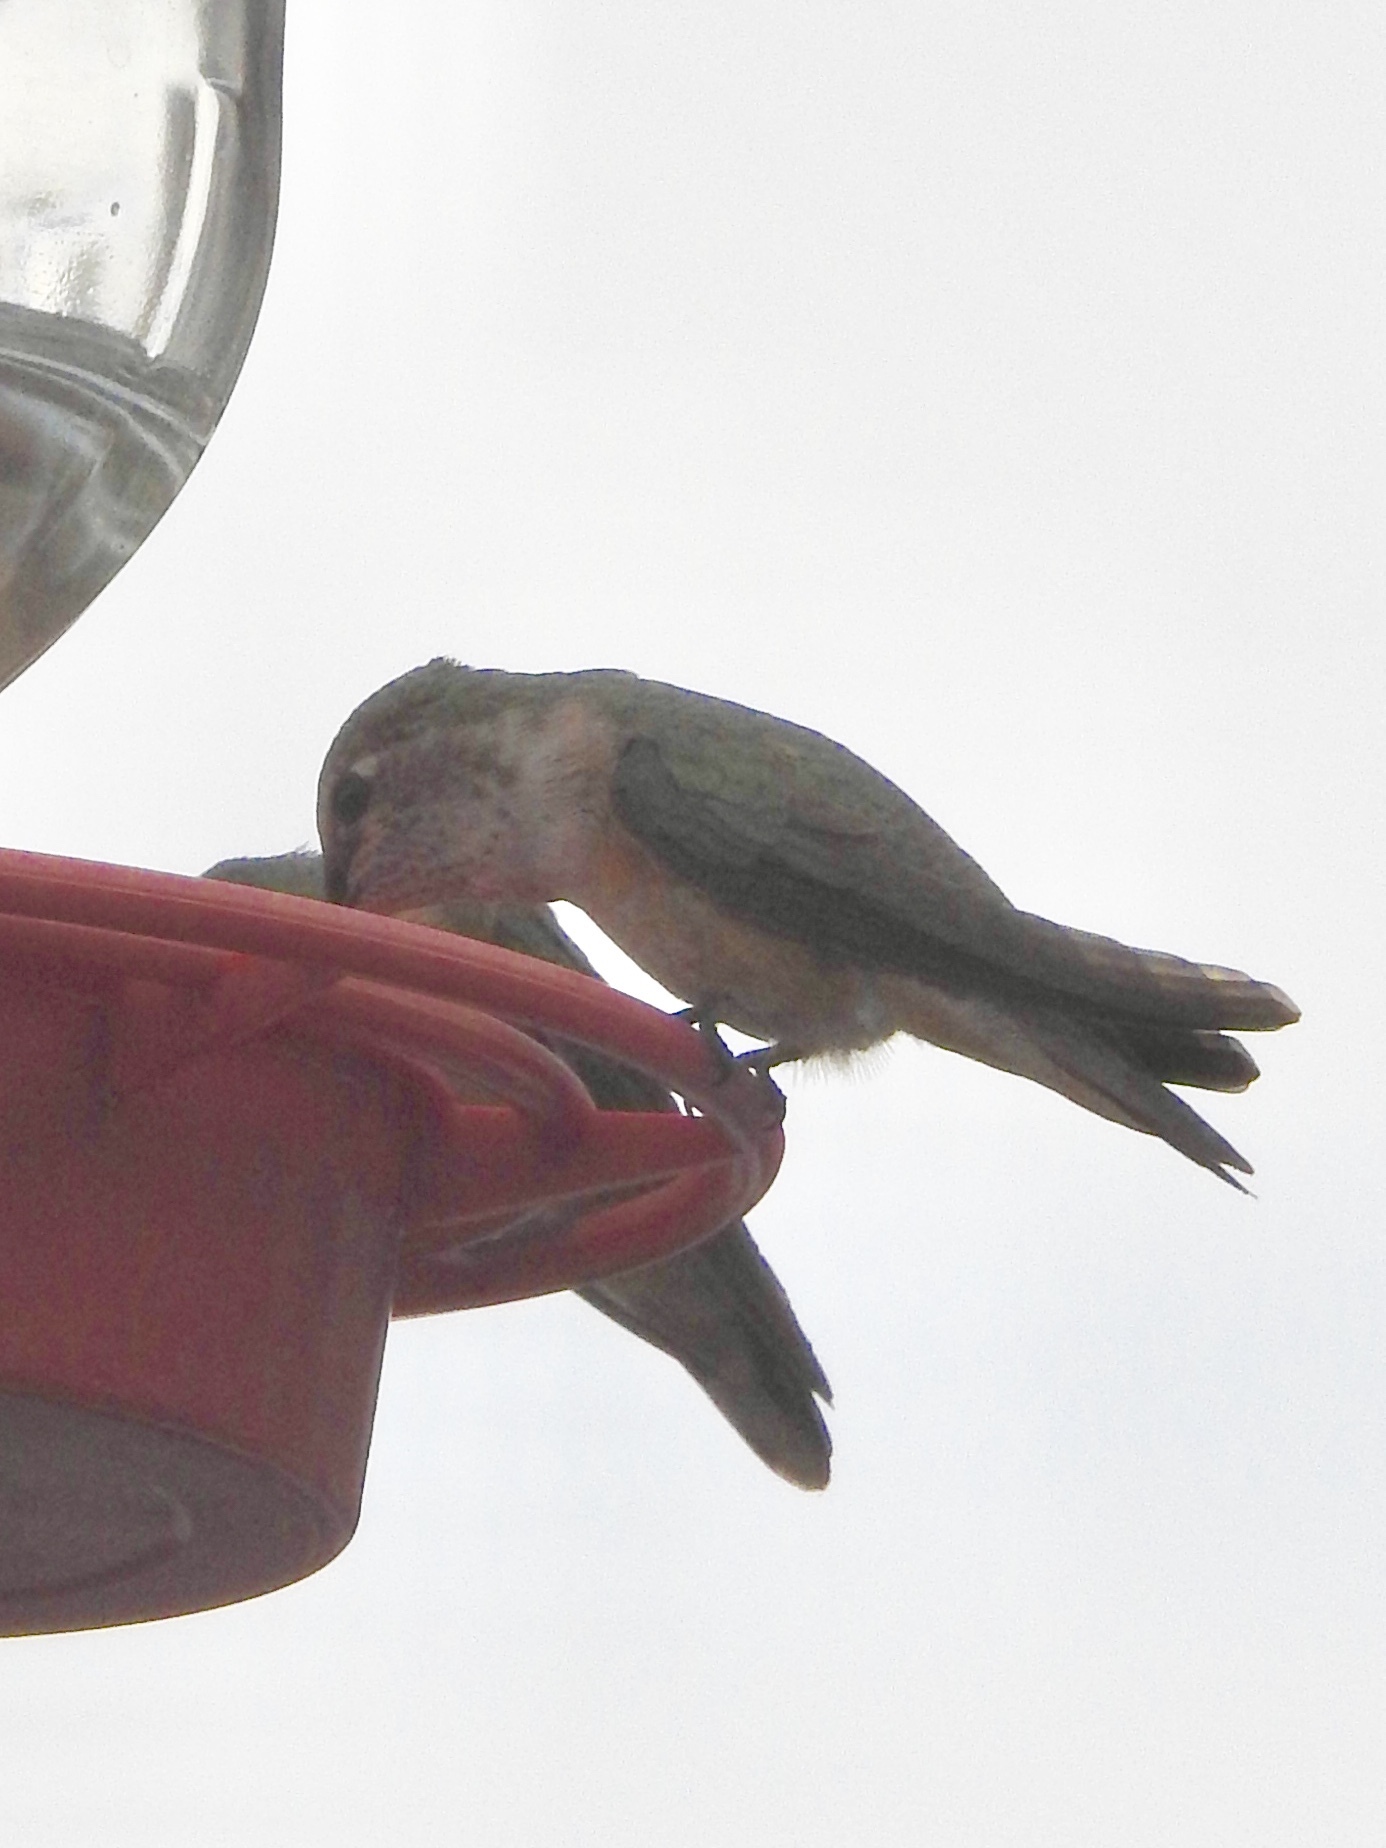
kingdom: Animalia
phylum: Chordata
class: Aves
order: Apodiformes
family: Trochilidae
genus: Selasphorus
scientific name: Selasphorus platycercus
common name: Broad-tailed hummingbird
